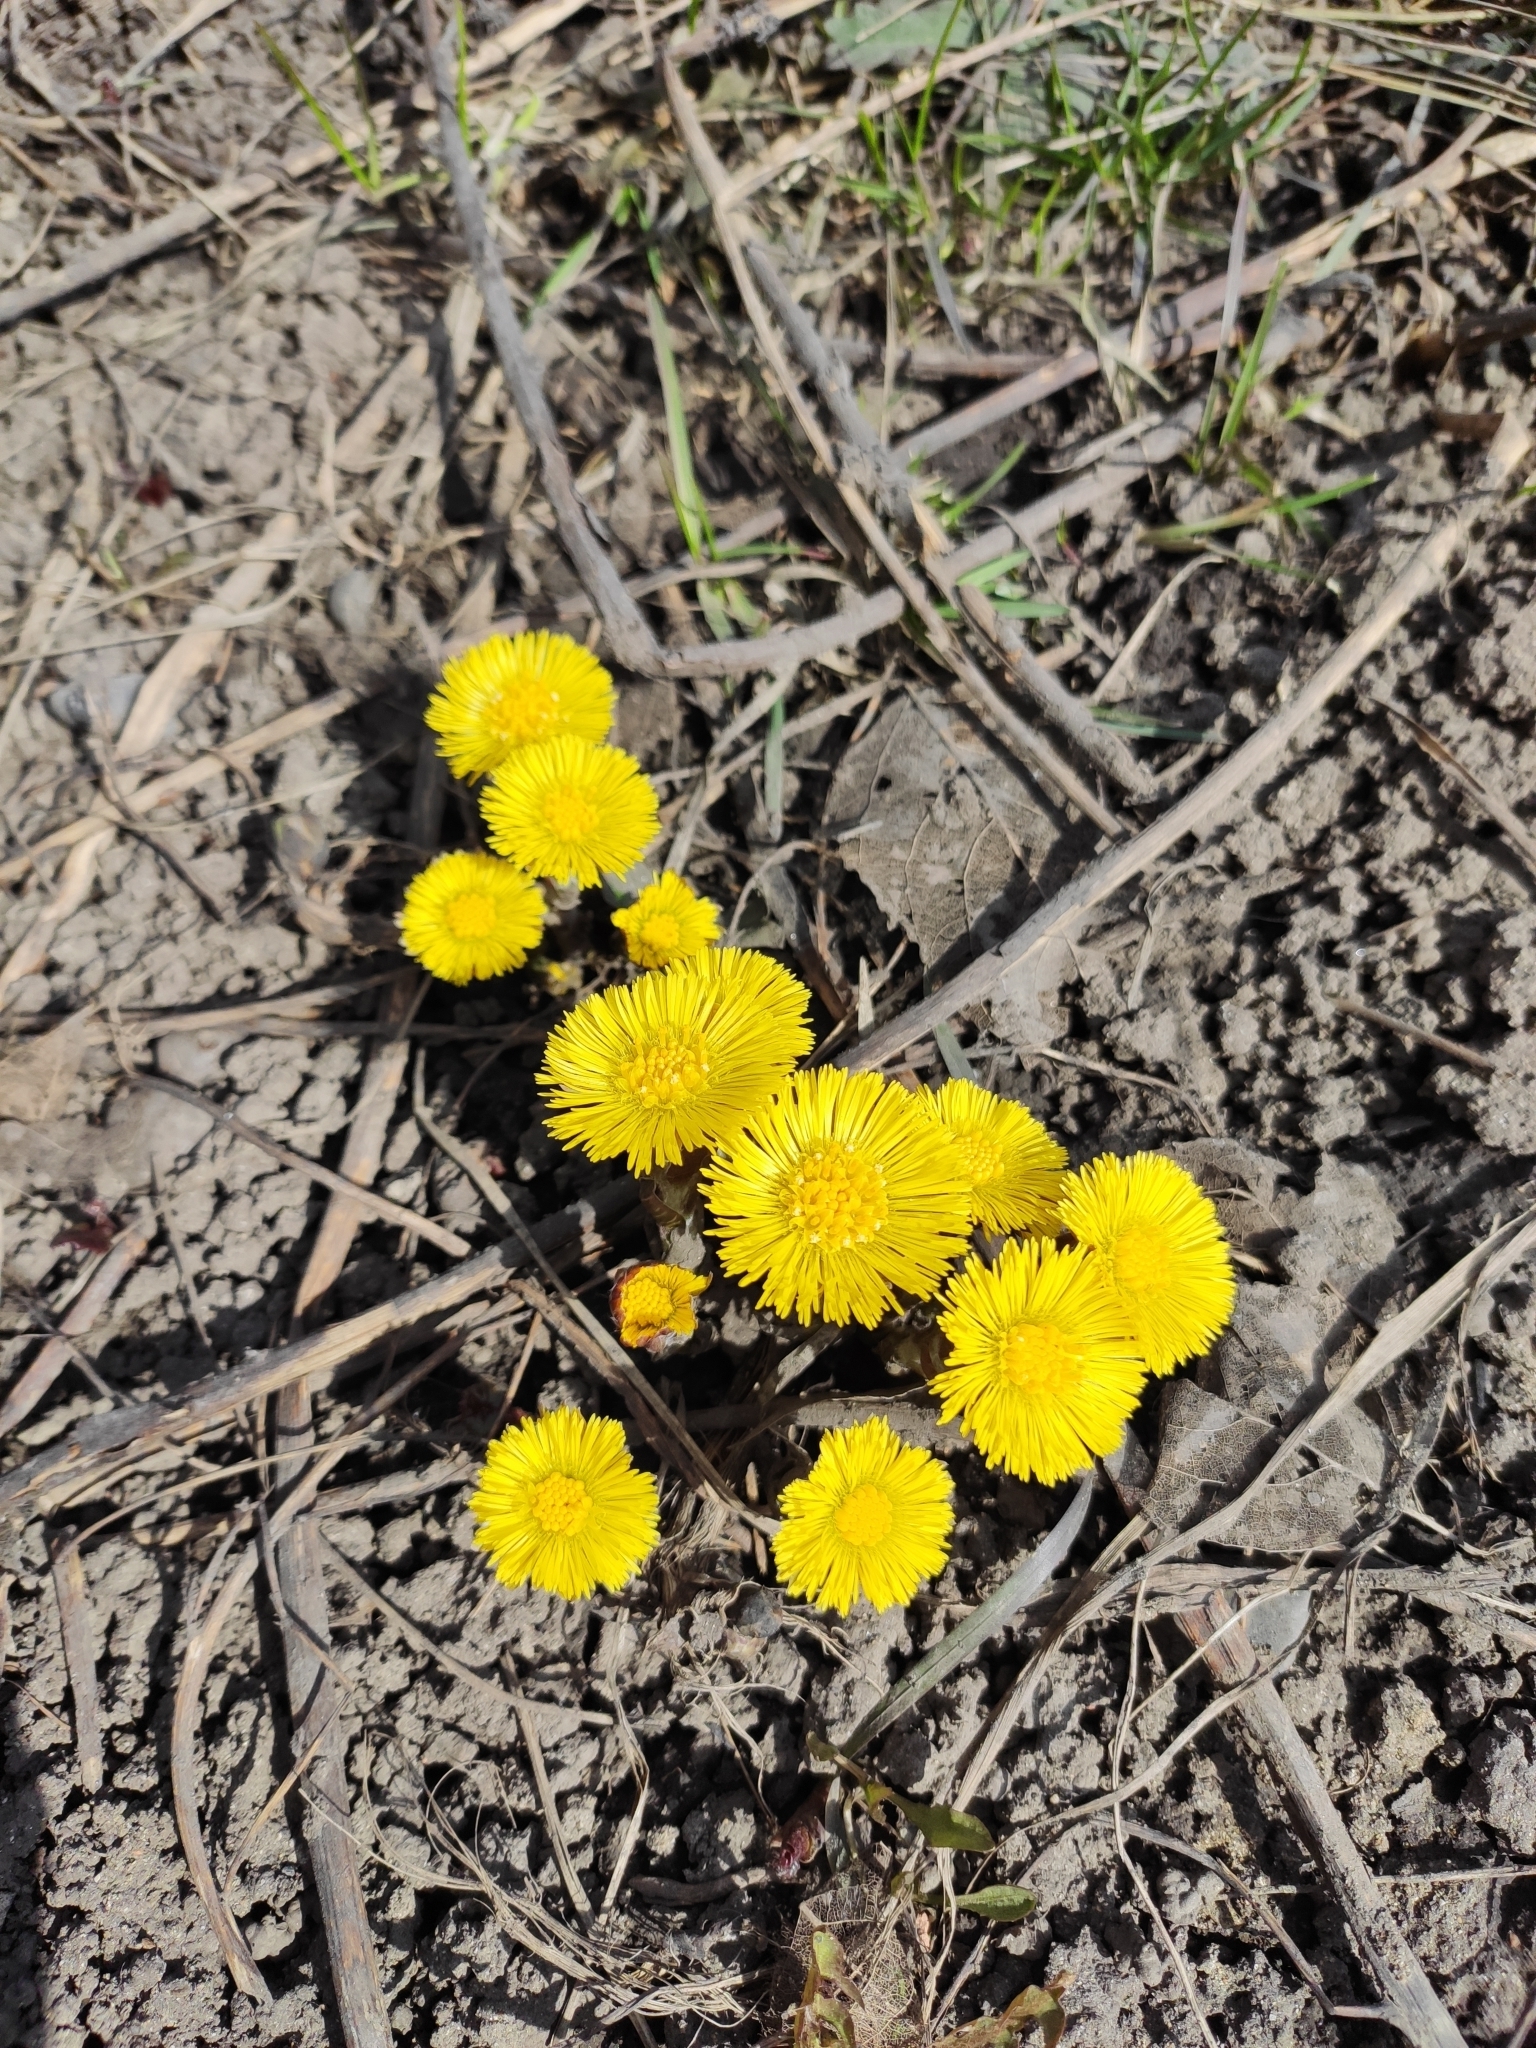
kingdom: Plantae
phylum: Tracheophyta
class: Magnoliopsida
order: Asterales
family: Asteraceae
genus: Tussilago
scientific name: Tussilago farfara
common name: Coltsfoot
